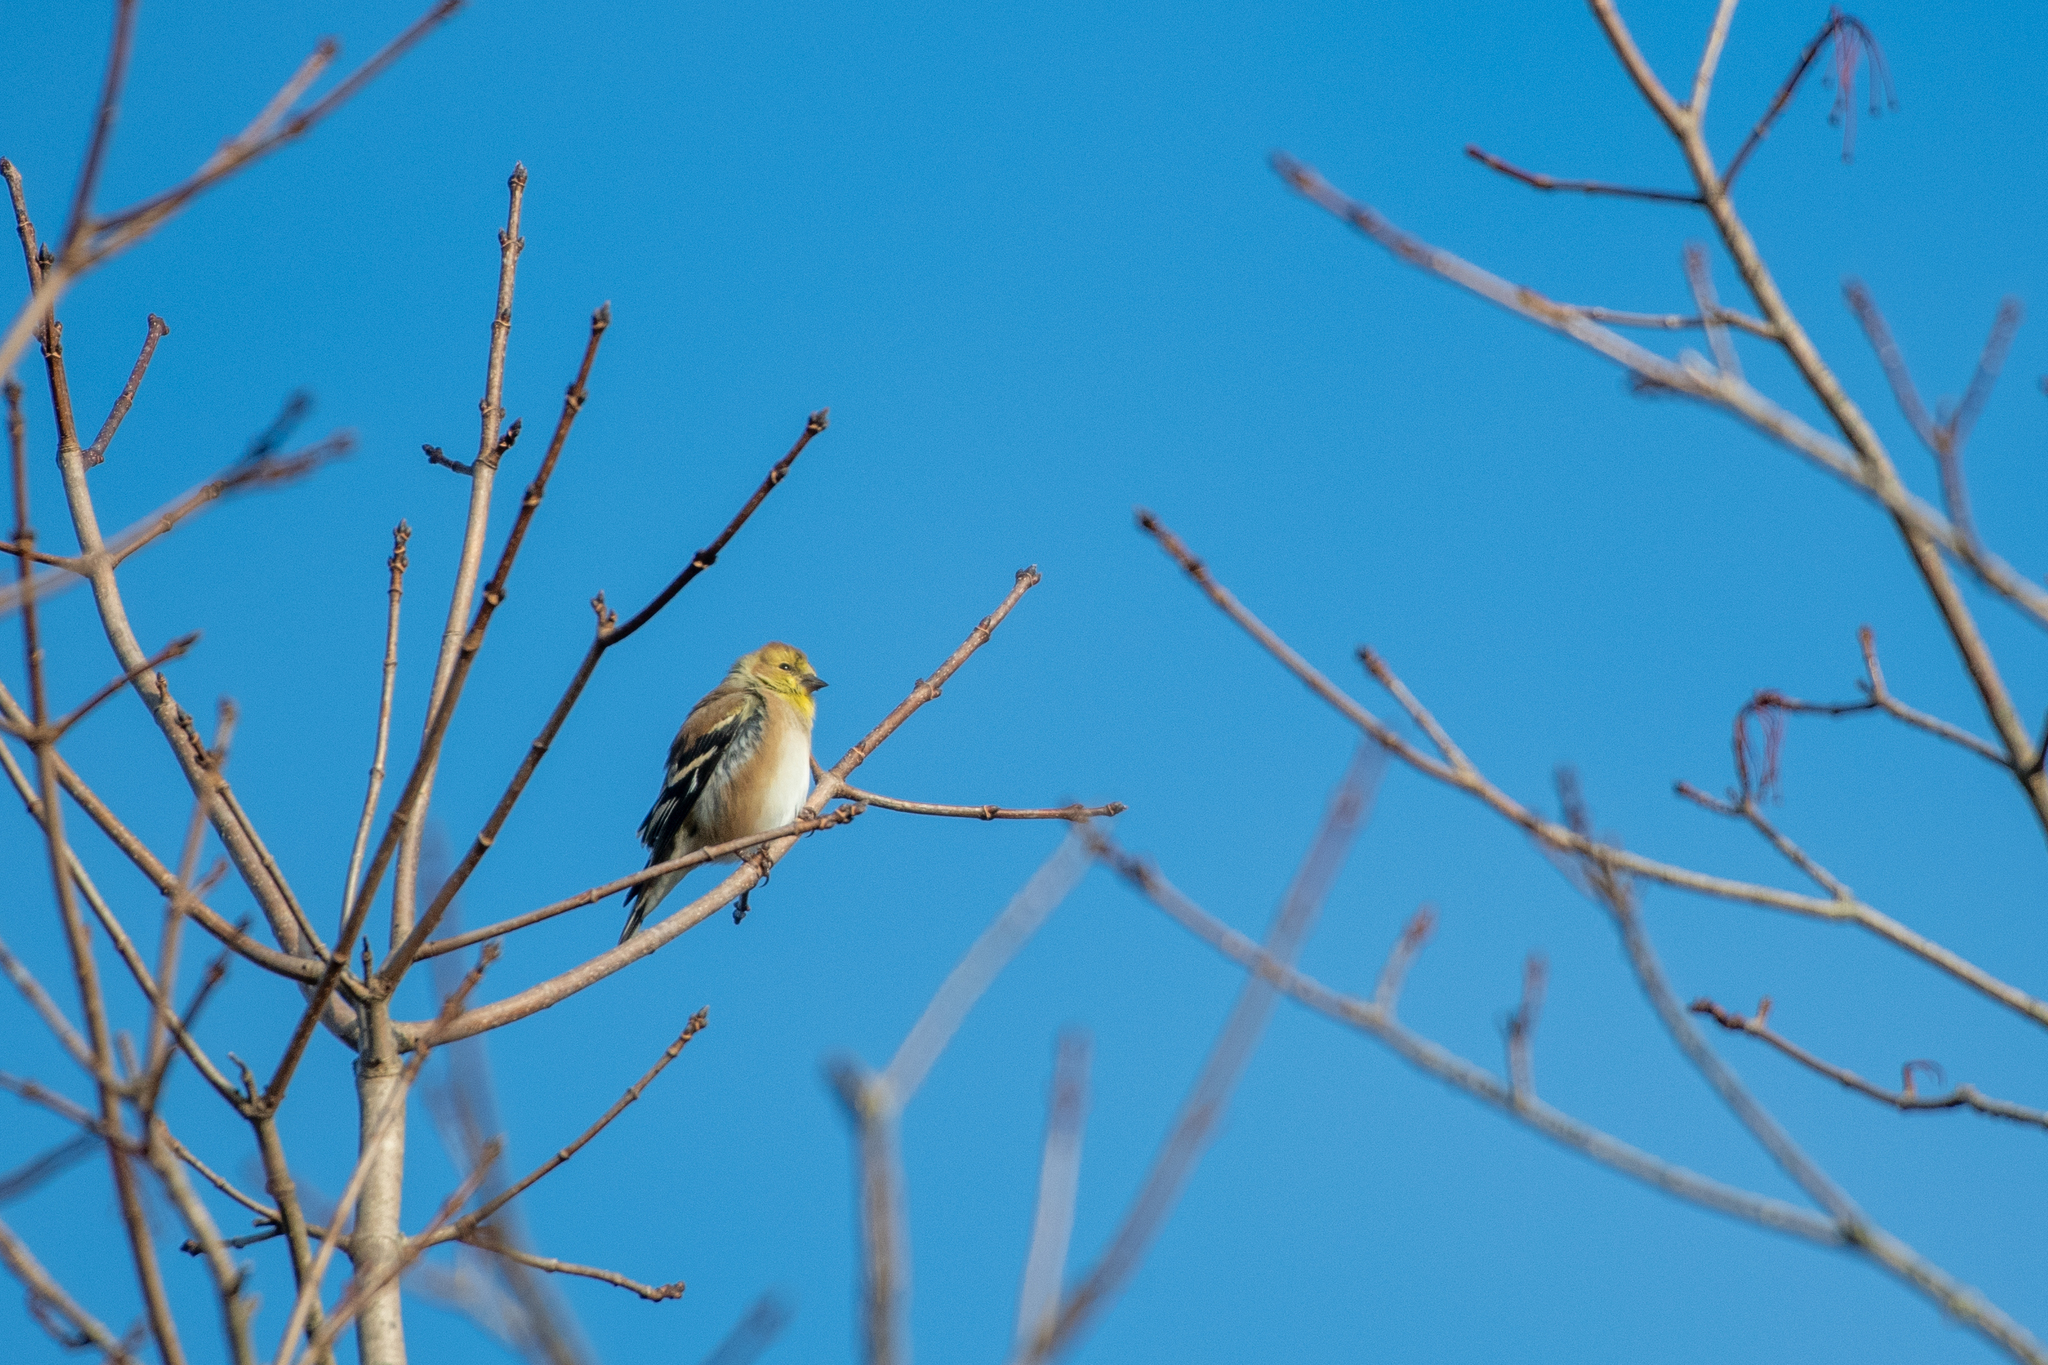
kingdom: Animalia
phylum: Chordata
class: Aves
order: Passeriformes
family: Fringillidae
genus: Spinus
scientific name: Spinus tristis
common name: American goldfinch
